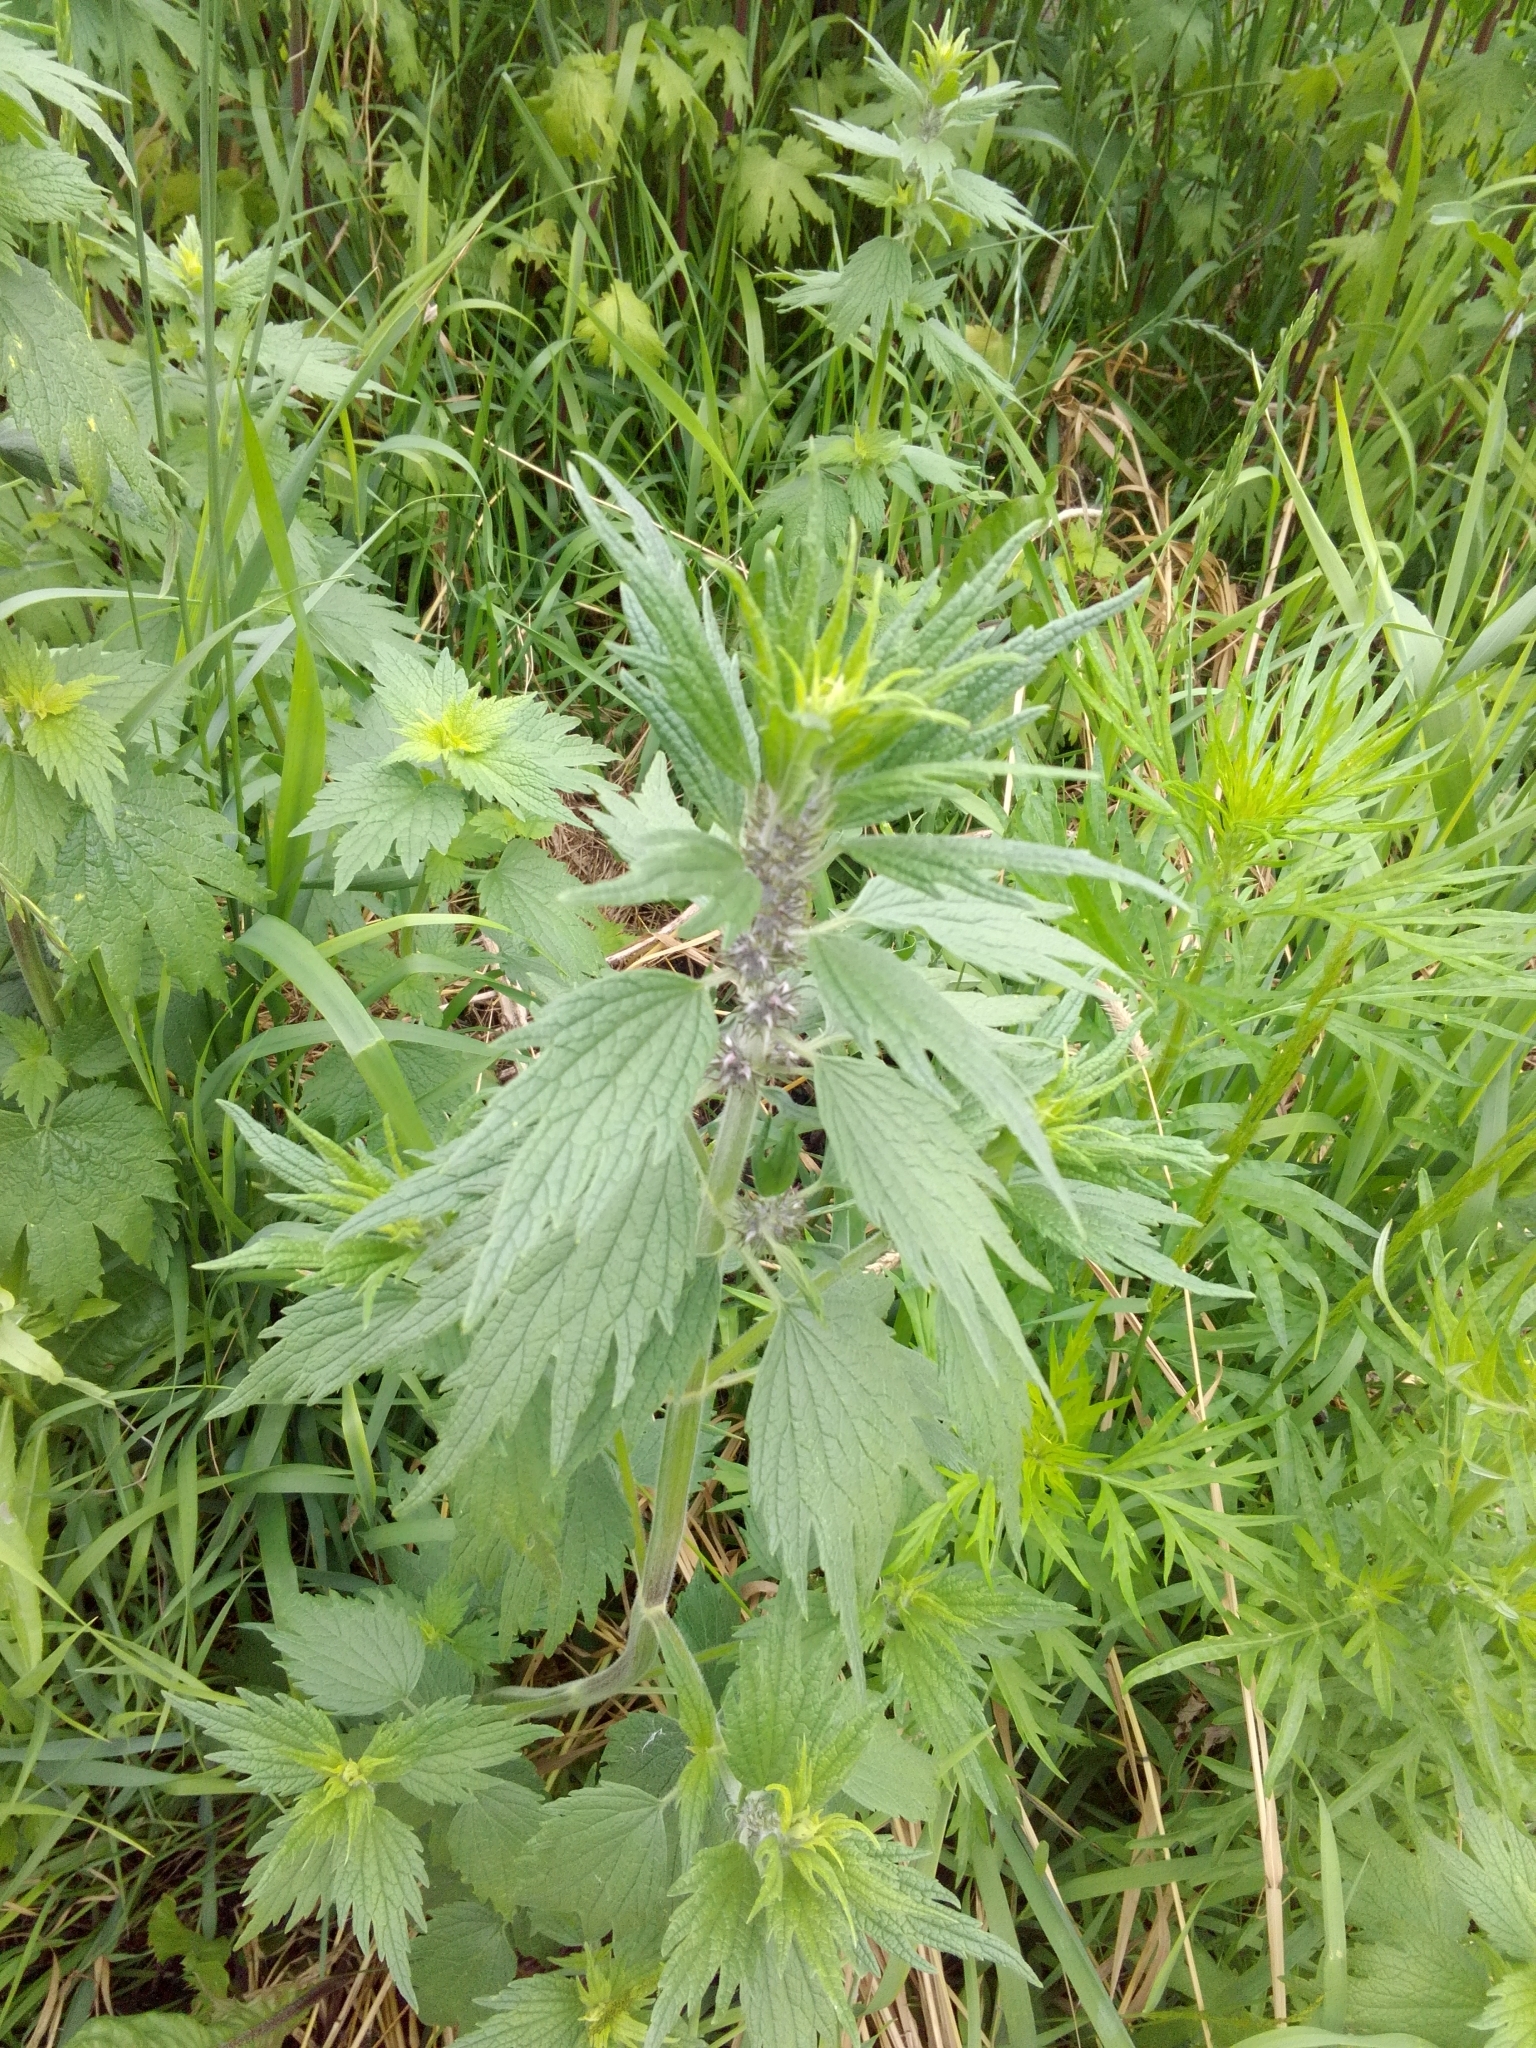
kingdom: Plantae
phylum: Tracheophyta
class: Magnoliopsida
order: Lamiales
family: Lamiaceae
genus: Leonurus
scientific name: Leonurus quinquelobatus
